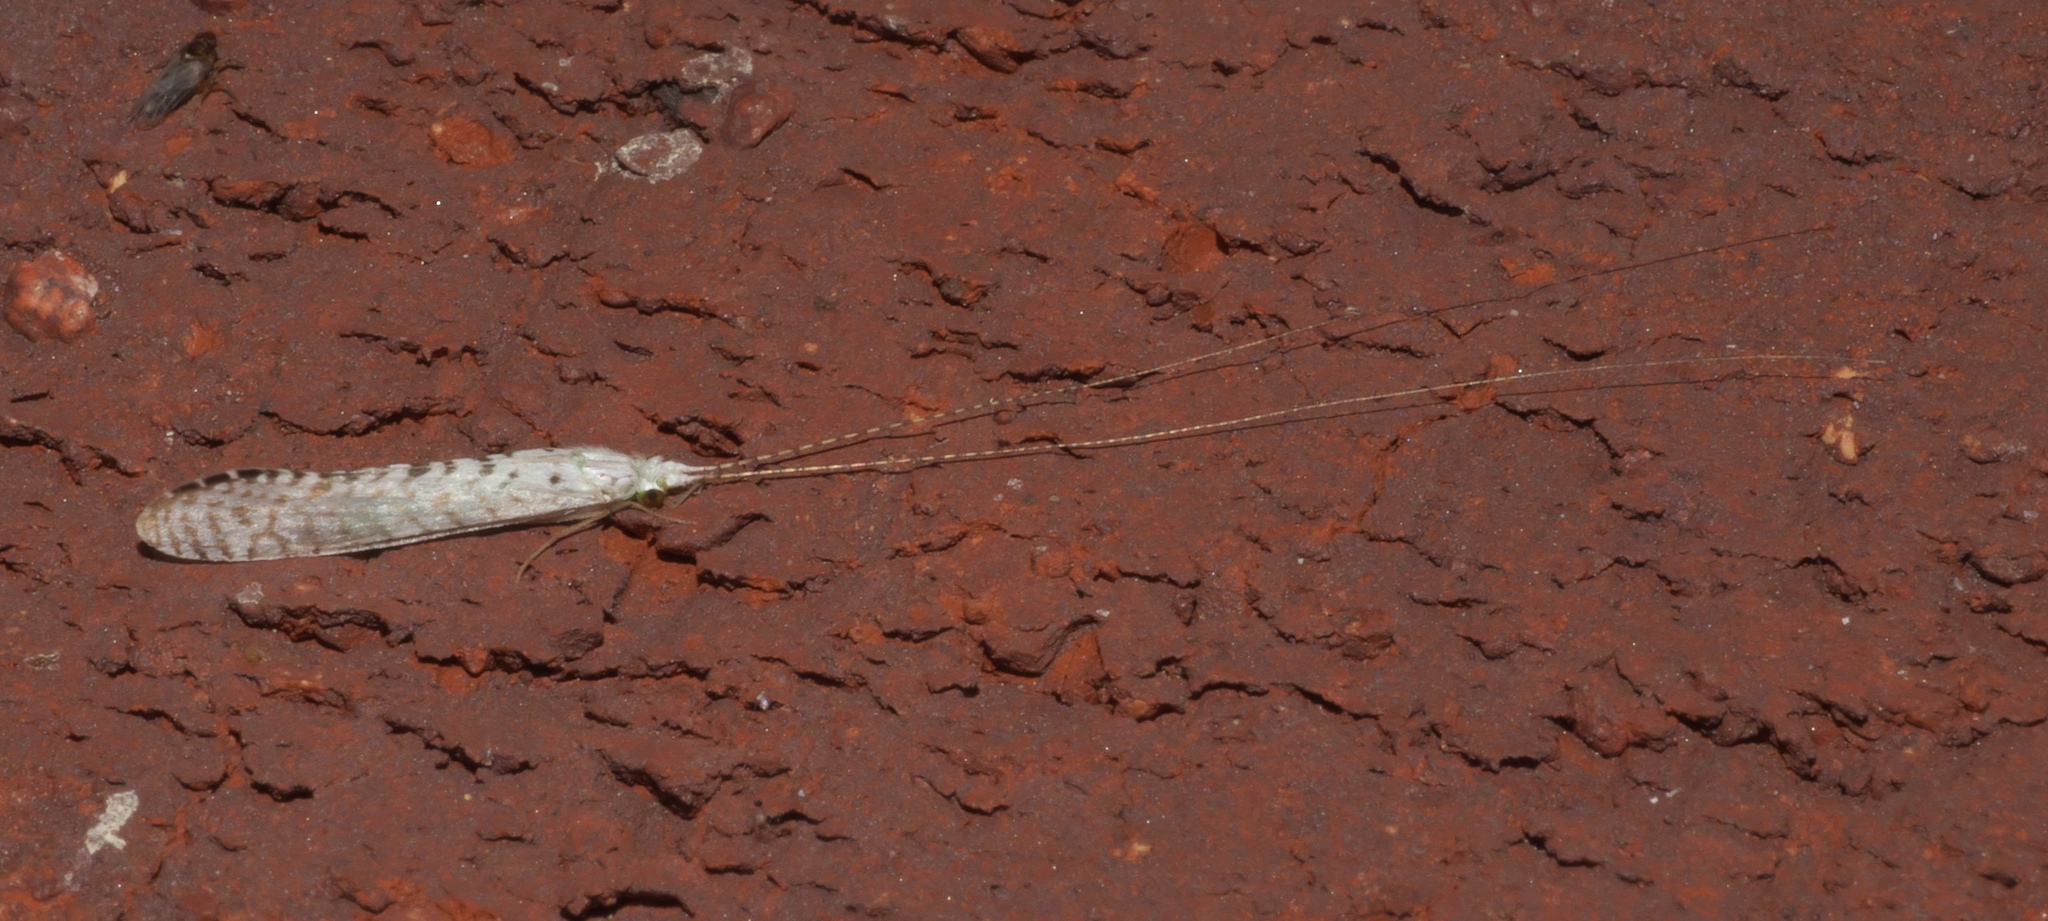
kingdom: Animalia
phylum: Arthropoda
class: Insecta
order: Trichoptera
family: Leptoceridae
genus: Nectopsyche
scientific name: Nectopsyche candida
